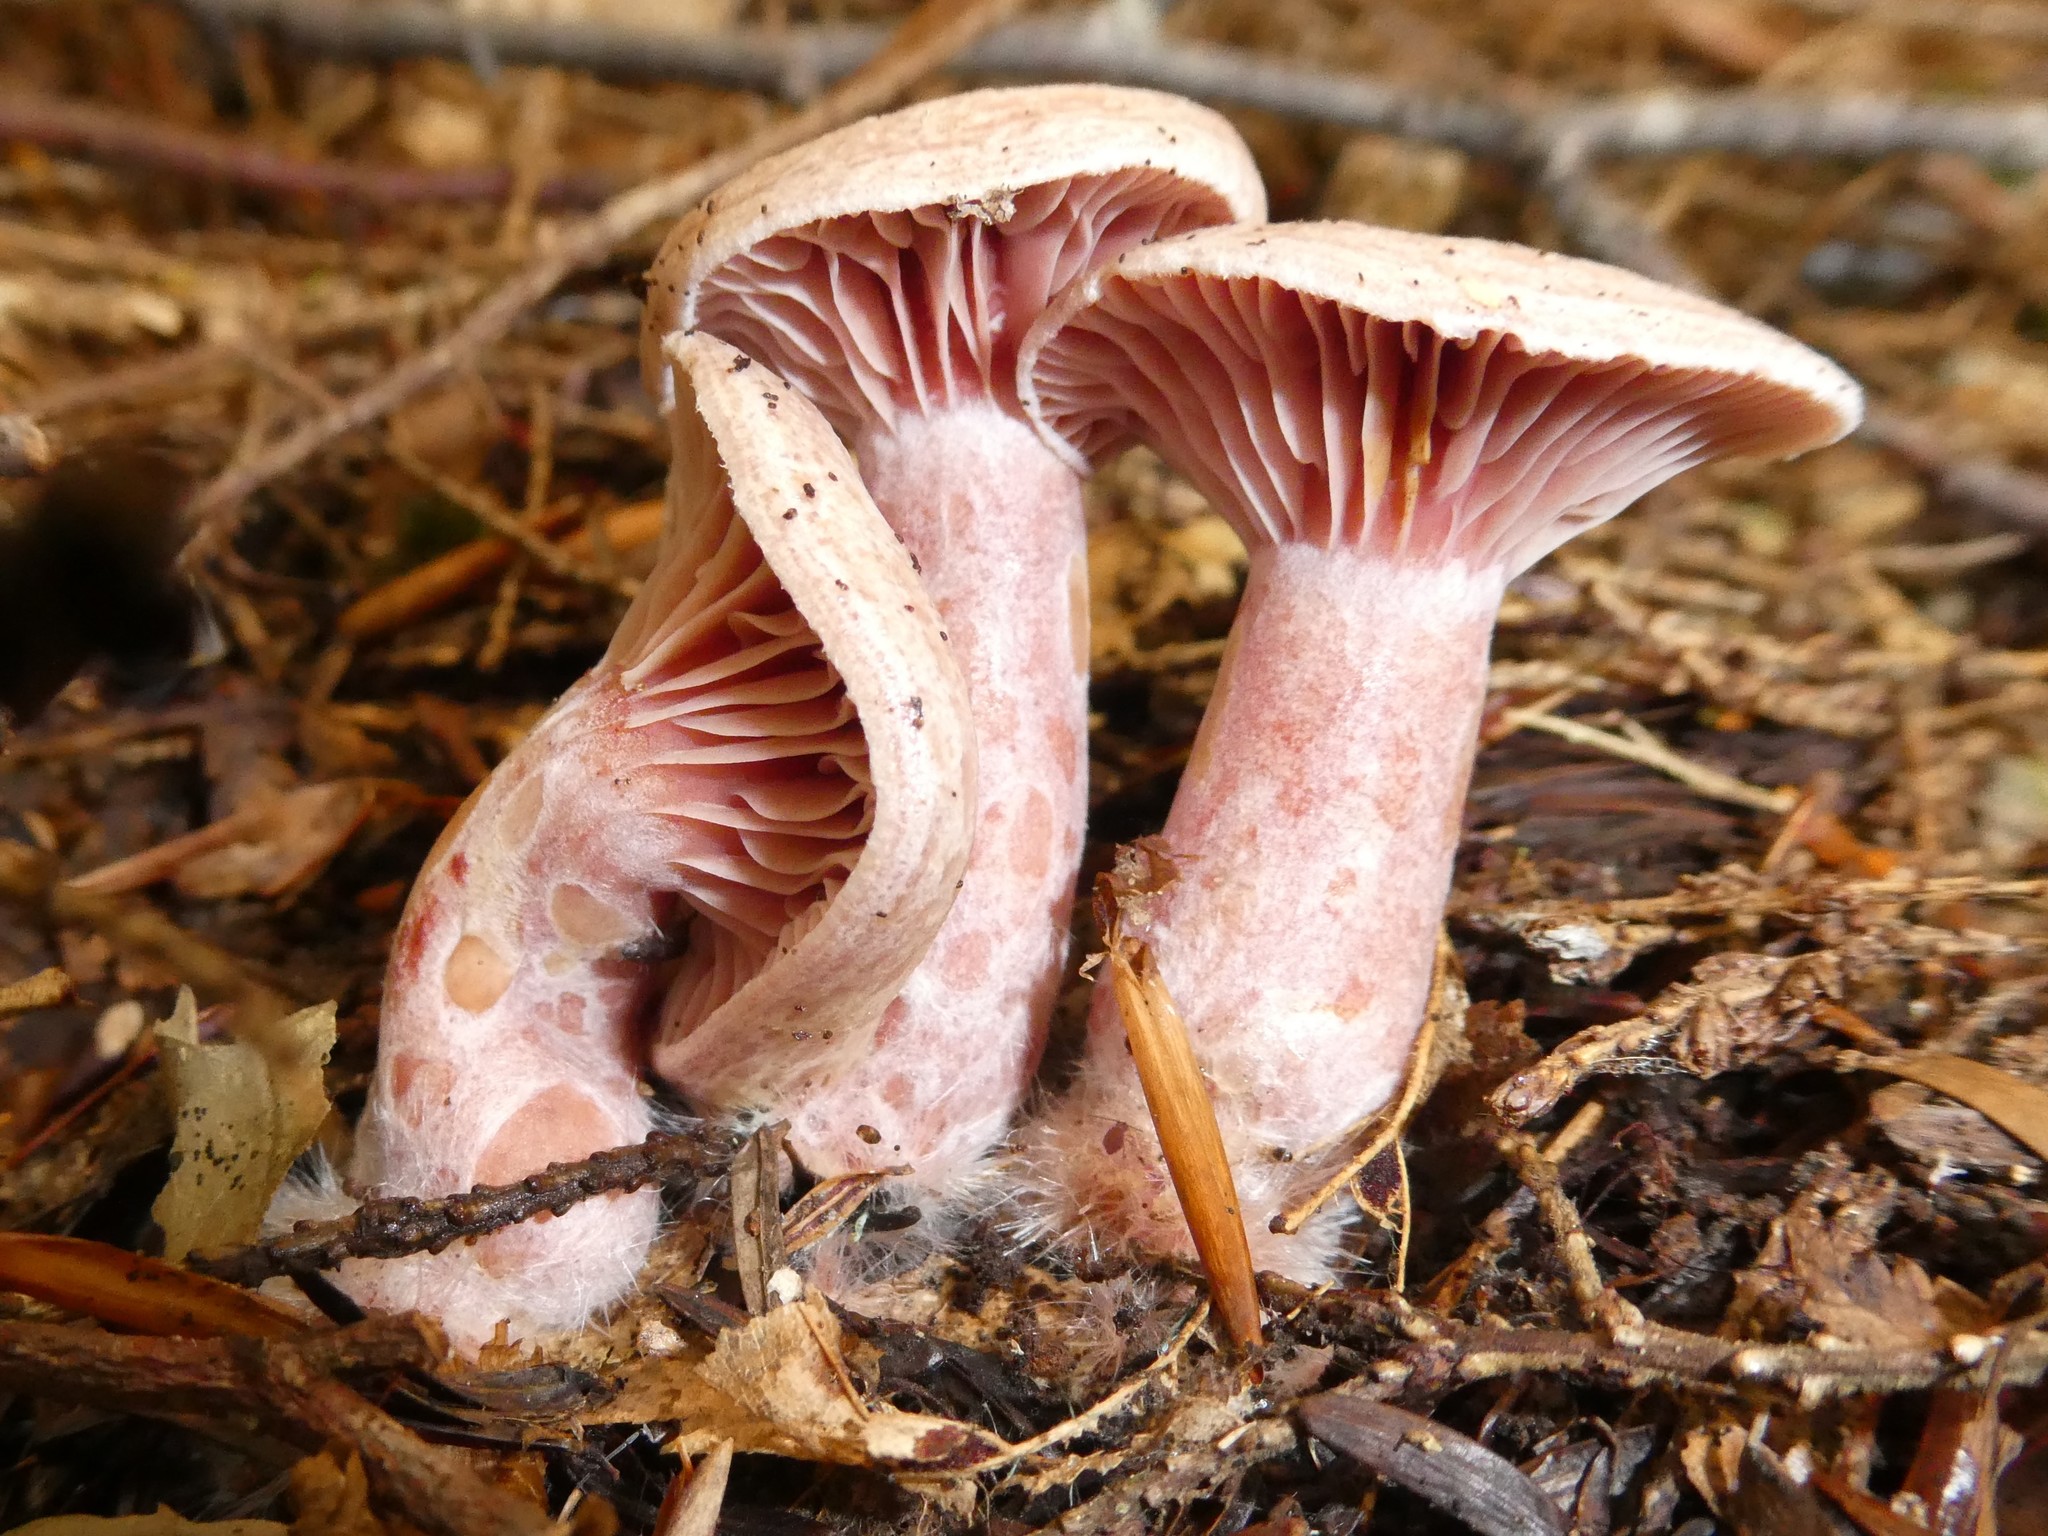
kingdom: Fungi
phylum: Basidiomycota
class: Agaricomycetes
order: Russulales
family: Russulaceae
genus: Lactarius
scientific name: Lactarius subpurpureus
